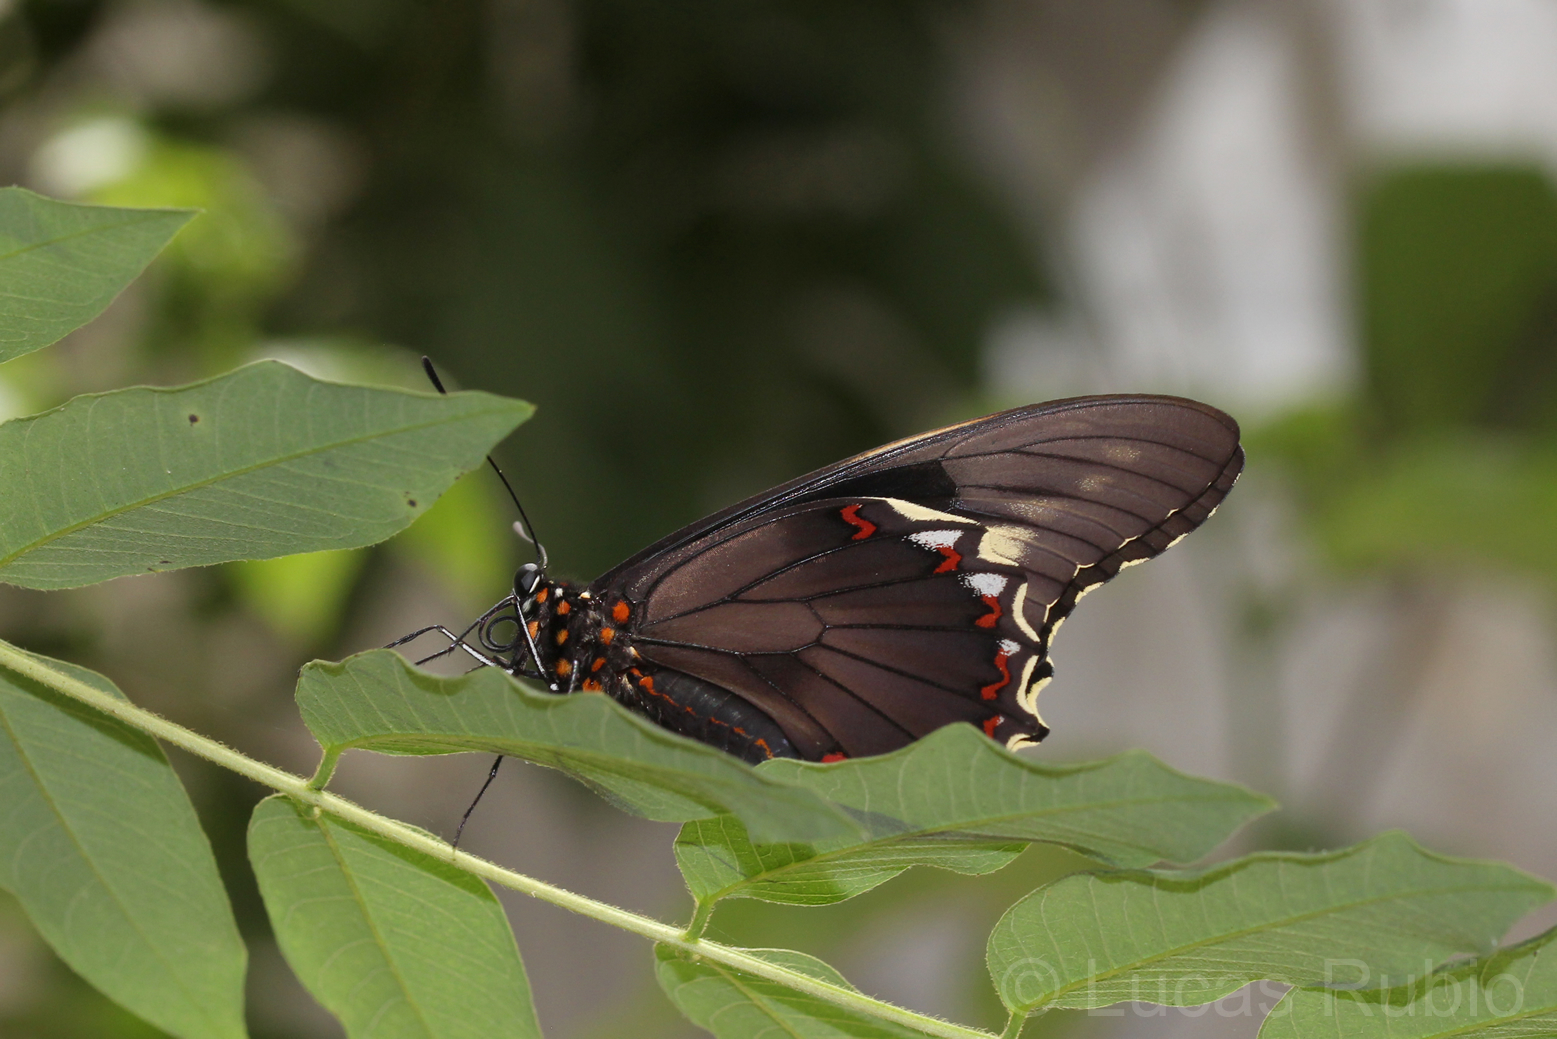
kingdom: Animalia
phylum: Arthropoda
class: Insecta
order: Lepidoptera
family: Papilionidae
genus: Battus
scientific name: Battus polydamas
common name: Polydamas swallowtail
